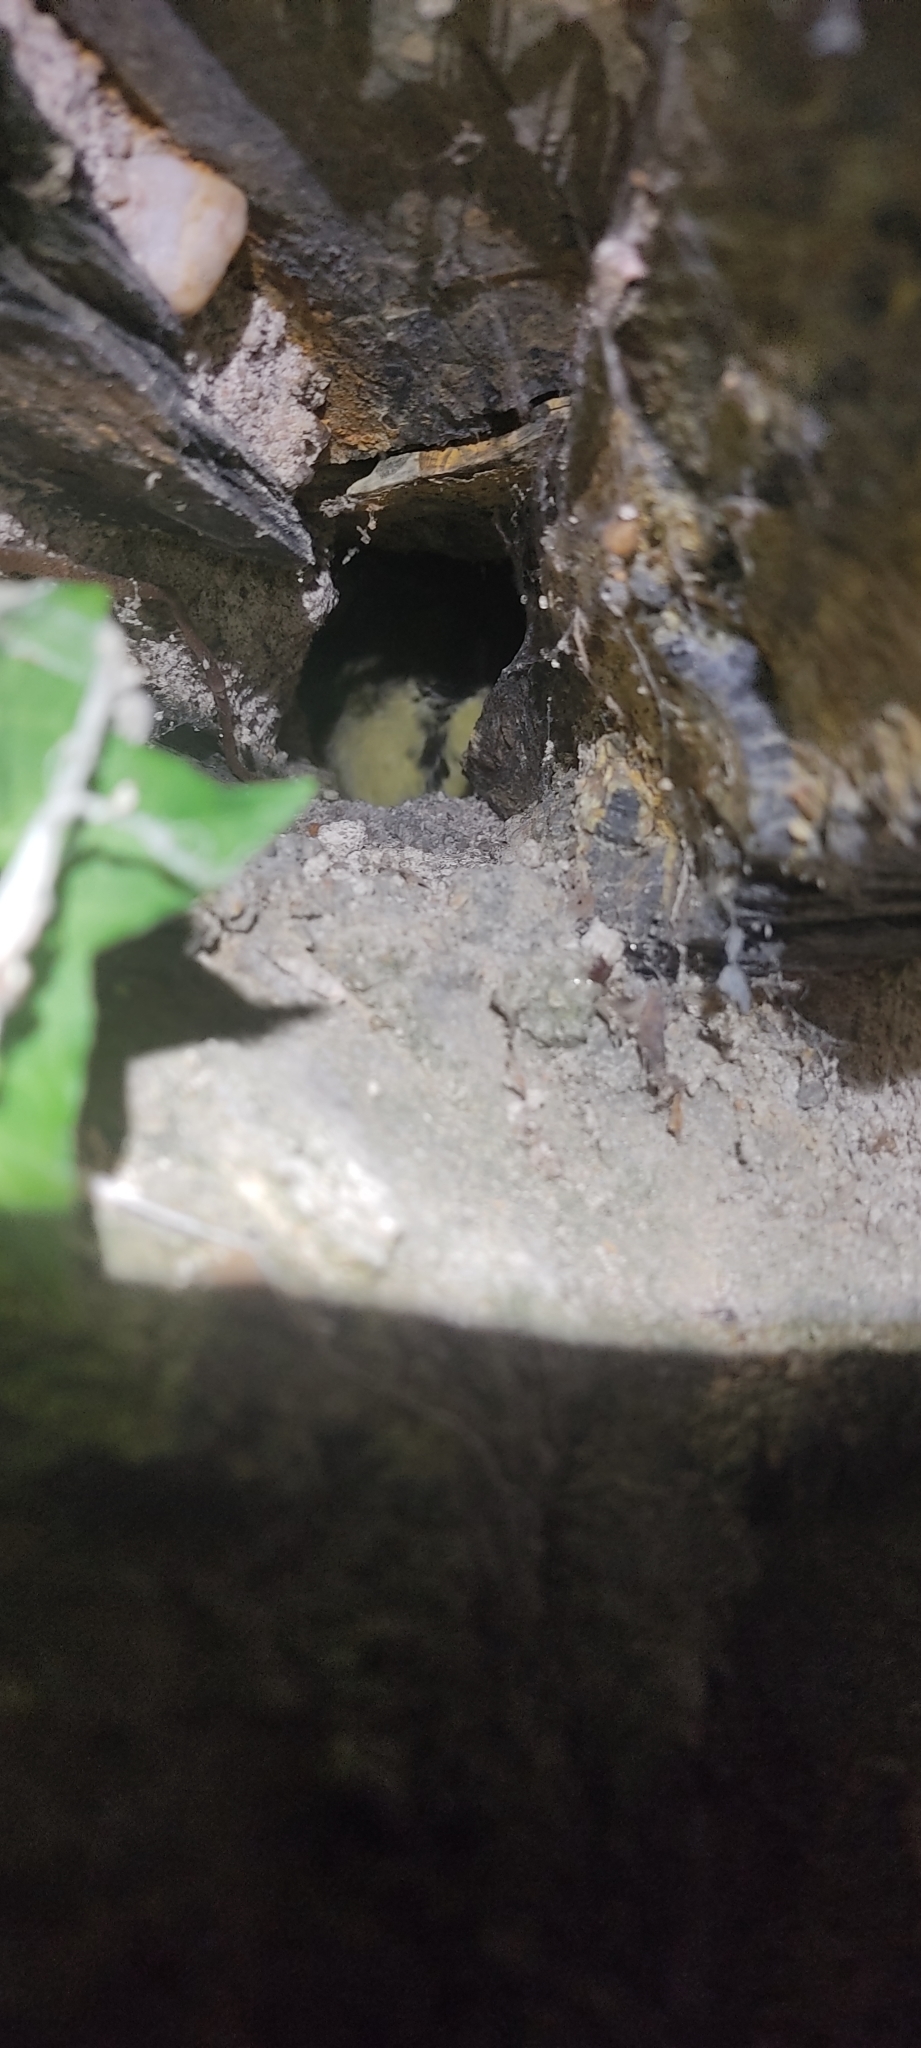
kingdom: Animalia
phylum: Chordata
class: Aves
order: Passeriformes
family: Paridae
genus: Parus
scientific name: Parus major
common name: Great tit
